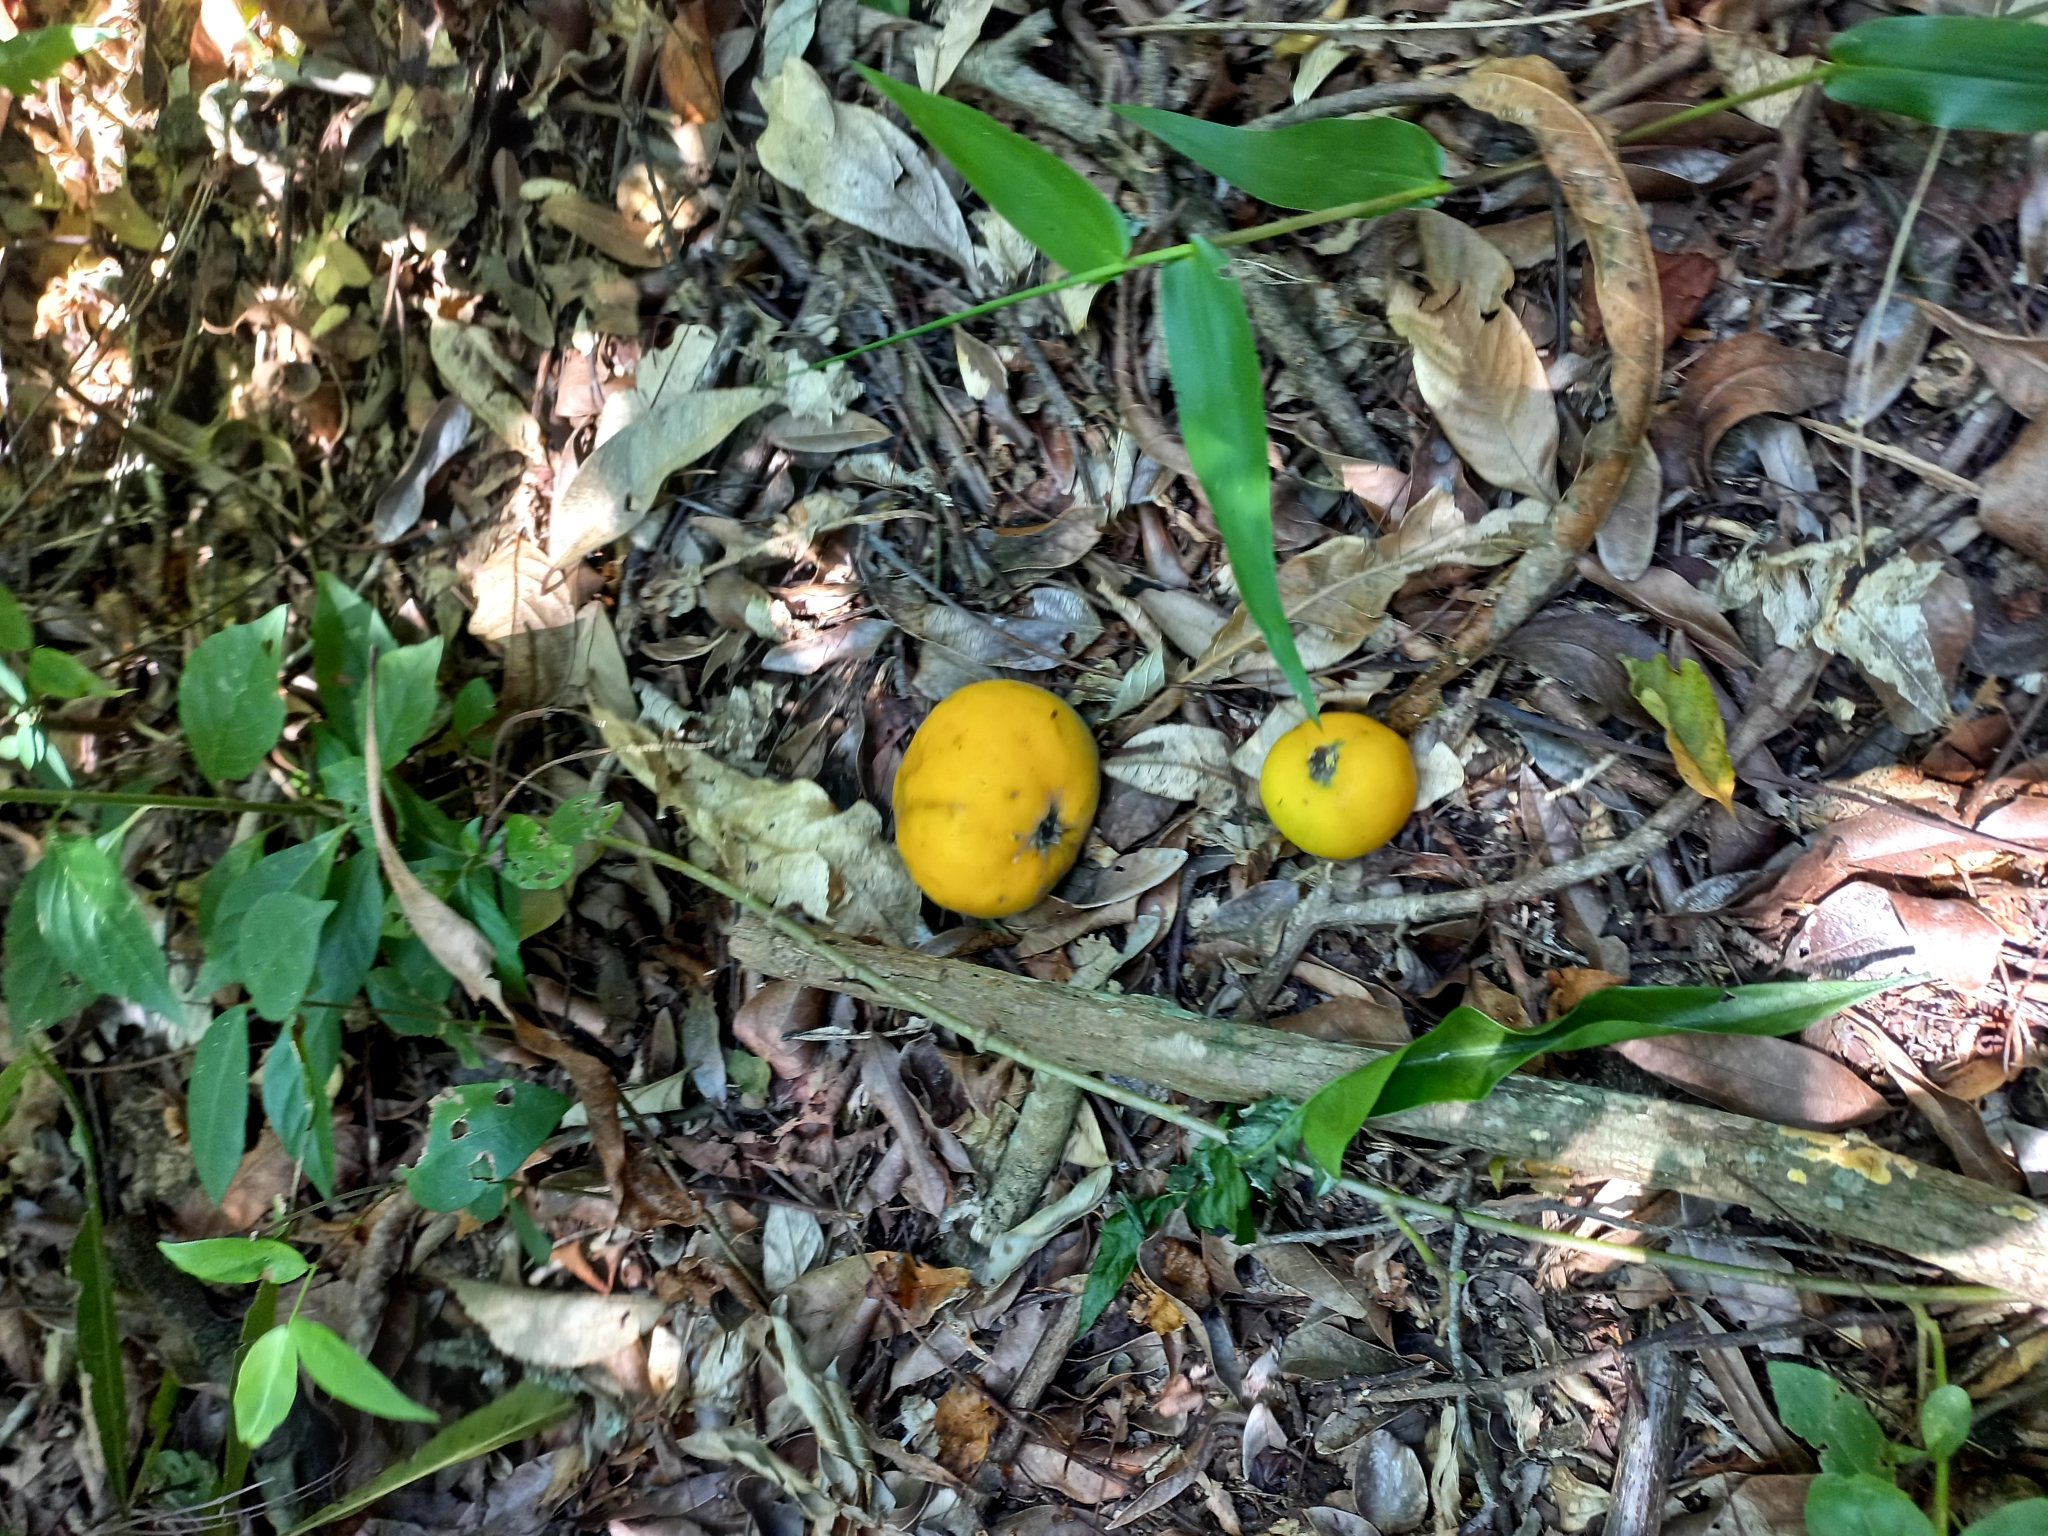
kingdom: Plantae
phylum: Tracheophyta
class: Magnoliopsida
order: Myrtales
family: Myrtaceae
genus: Eugenia
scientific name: Eugenia myrcianthes
